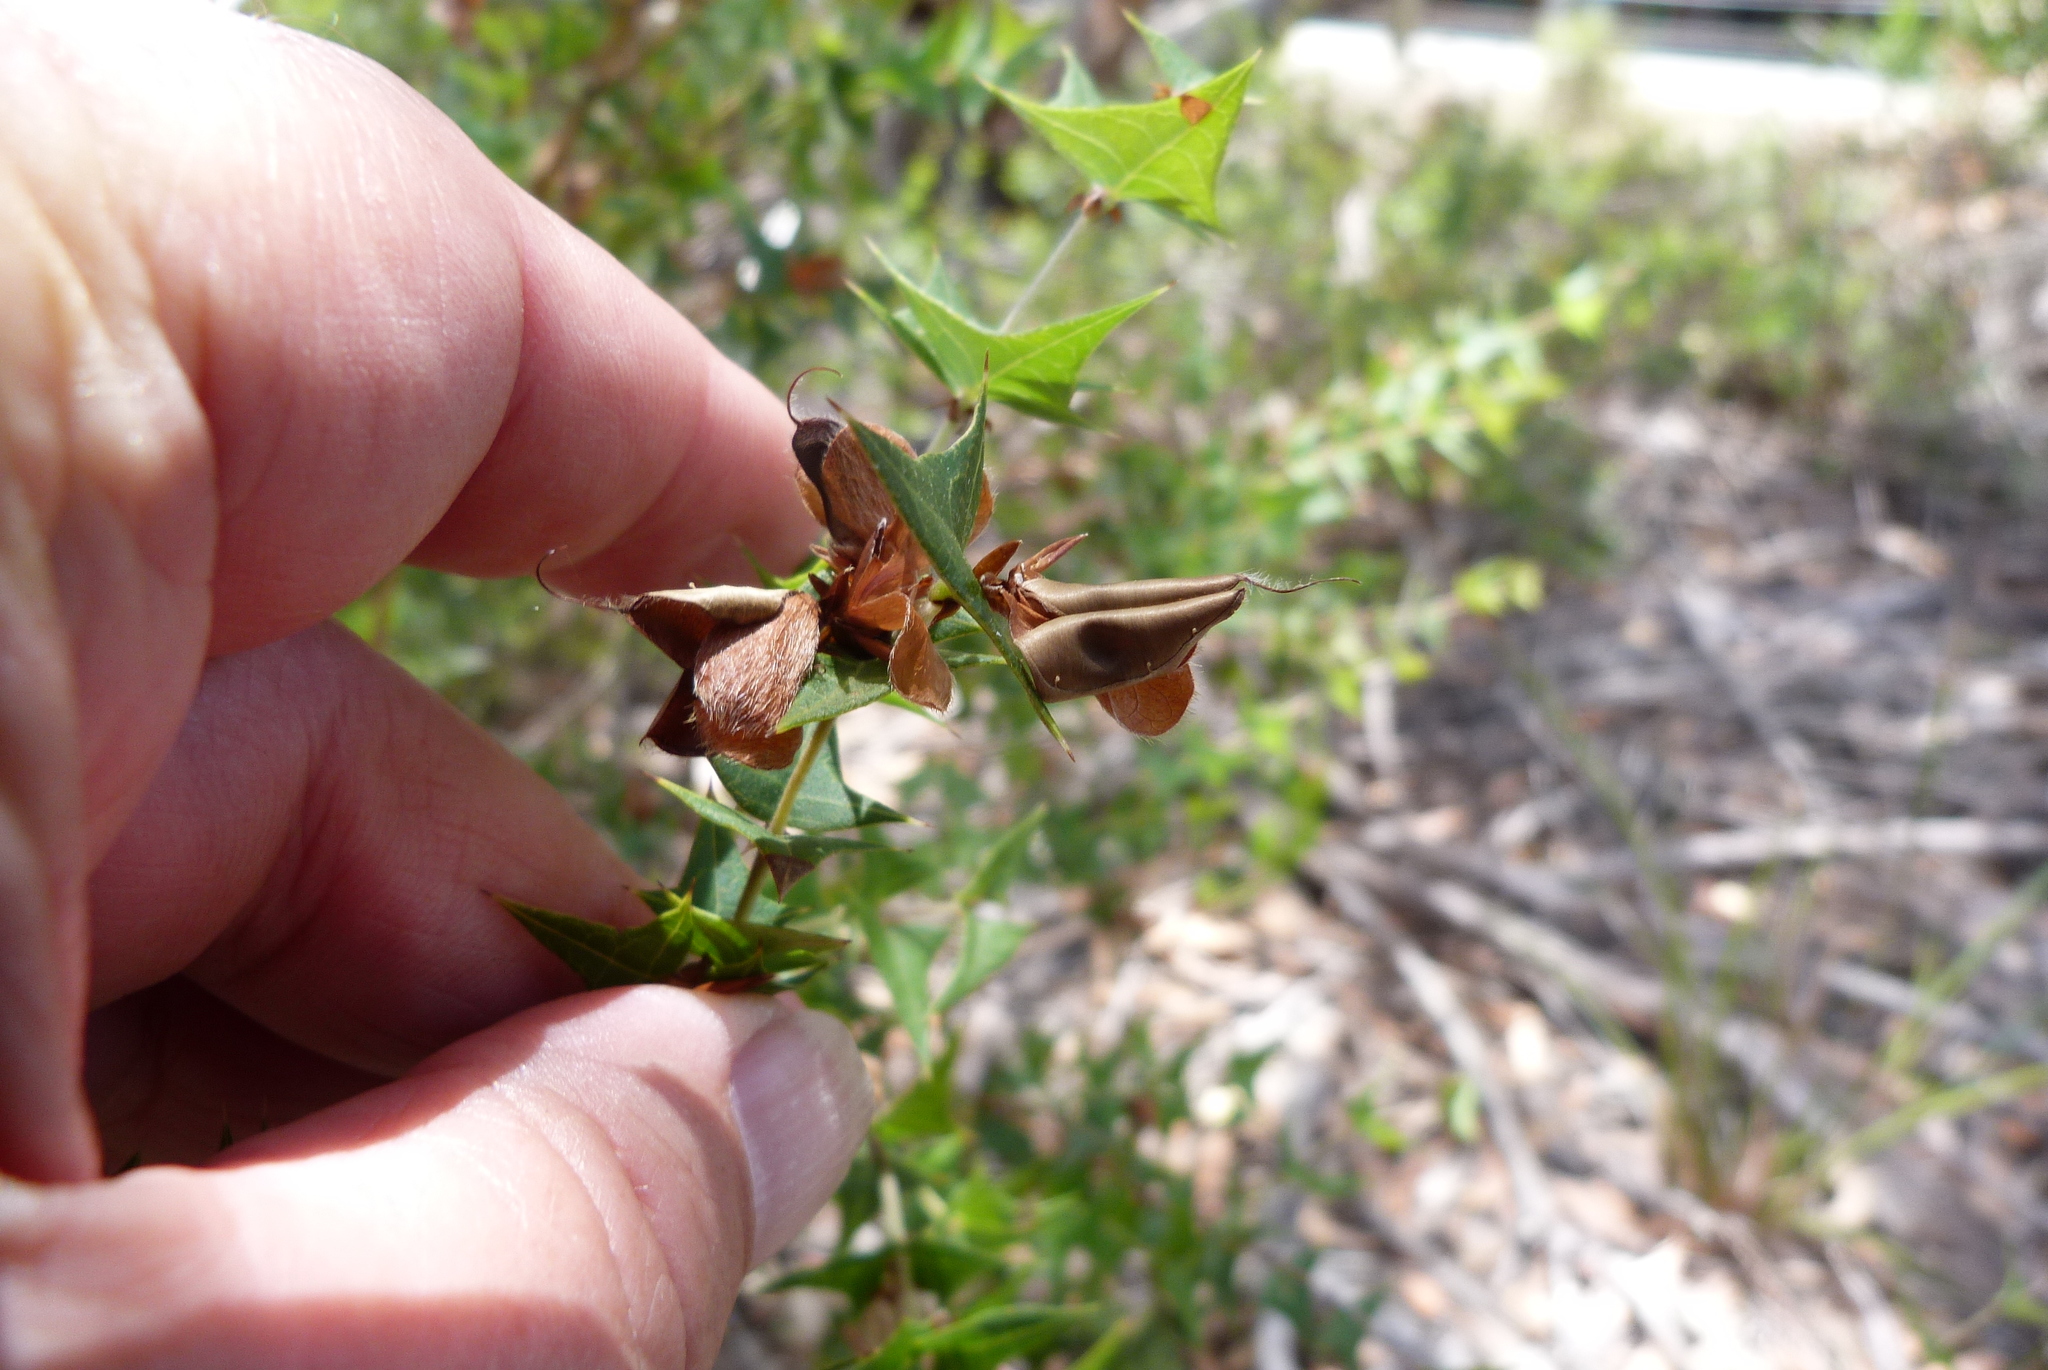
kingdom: Plantae
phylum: Tracheophyta
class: Magnoliopsida
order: Fabales
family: Fabaceae
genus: Platylobium
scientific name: Platylobium obtusangulum
